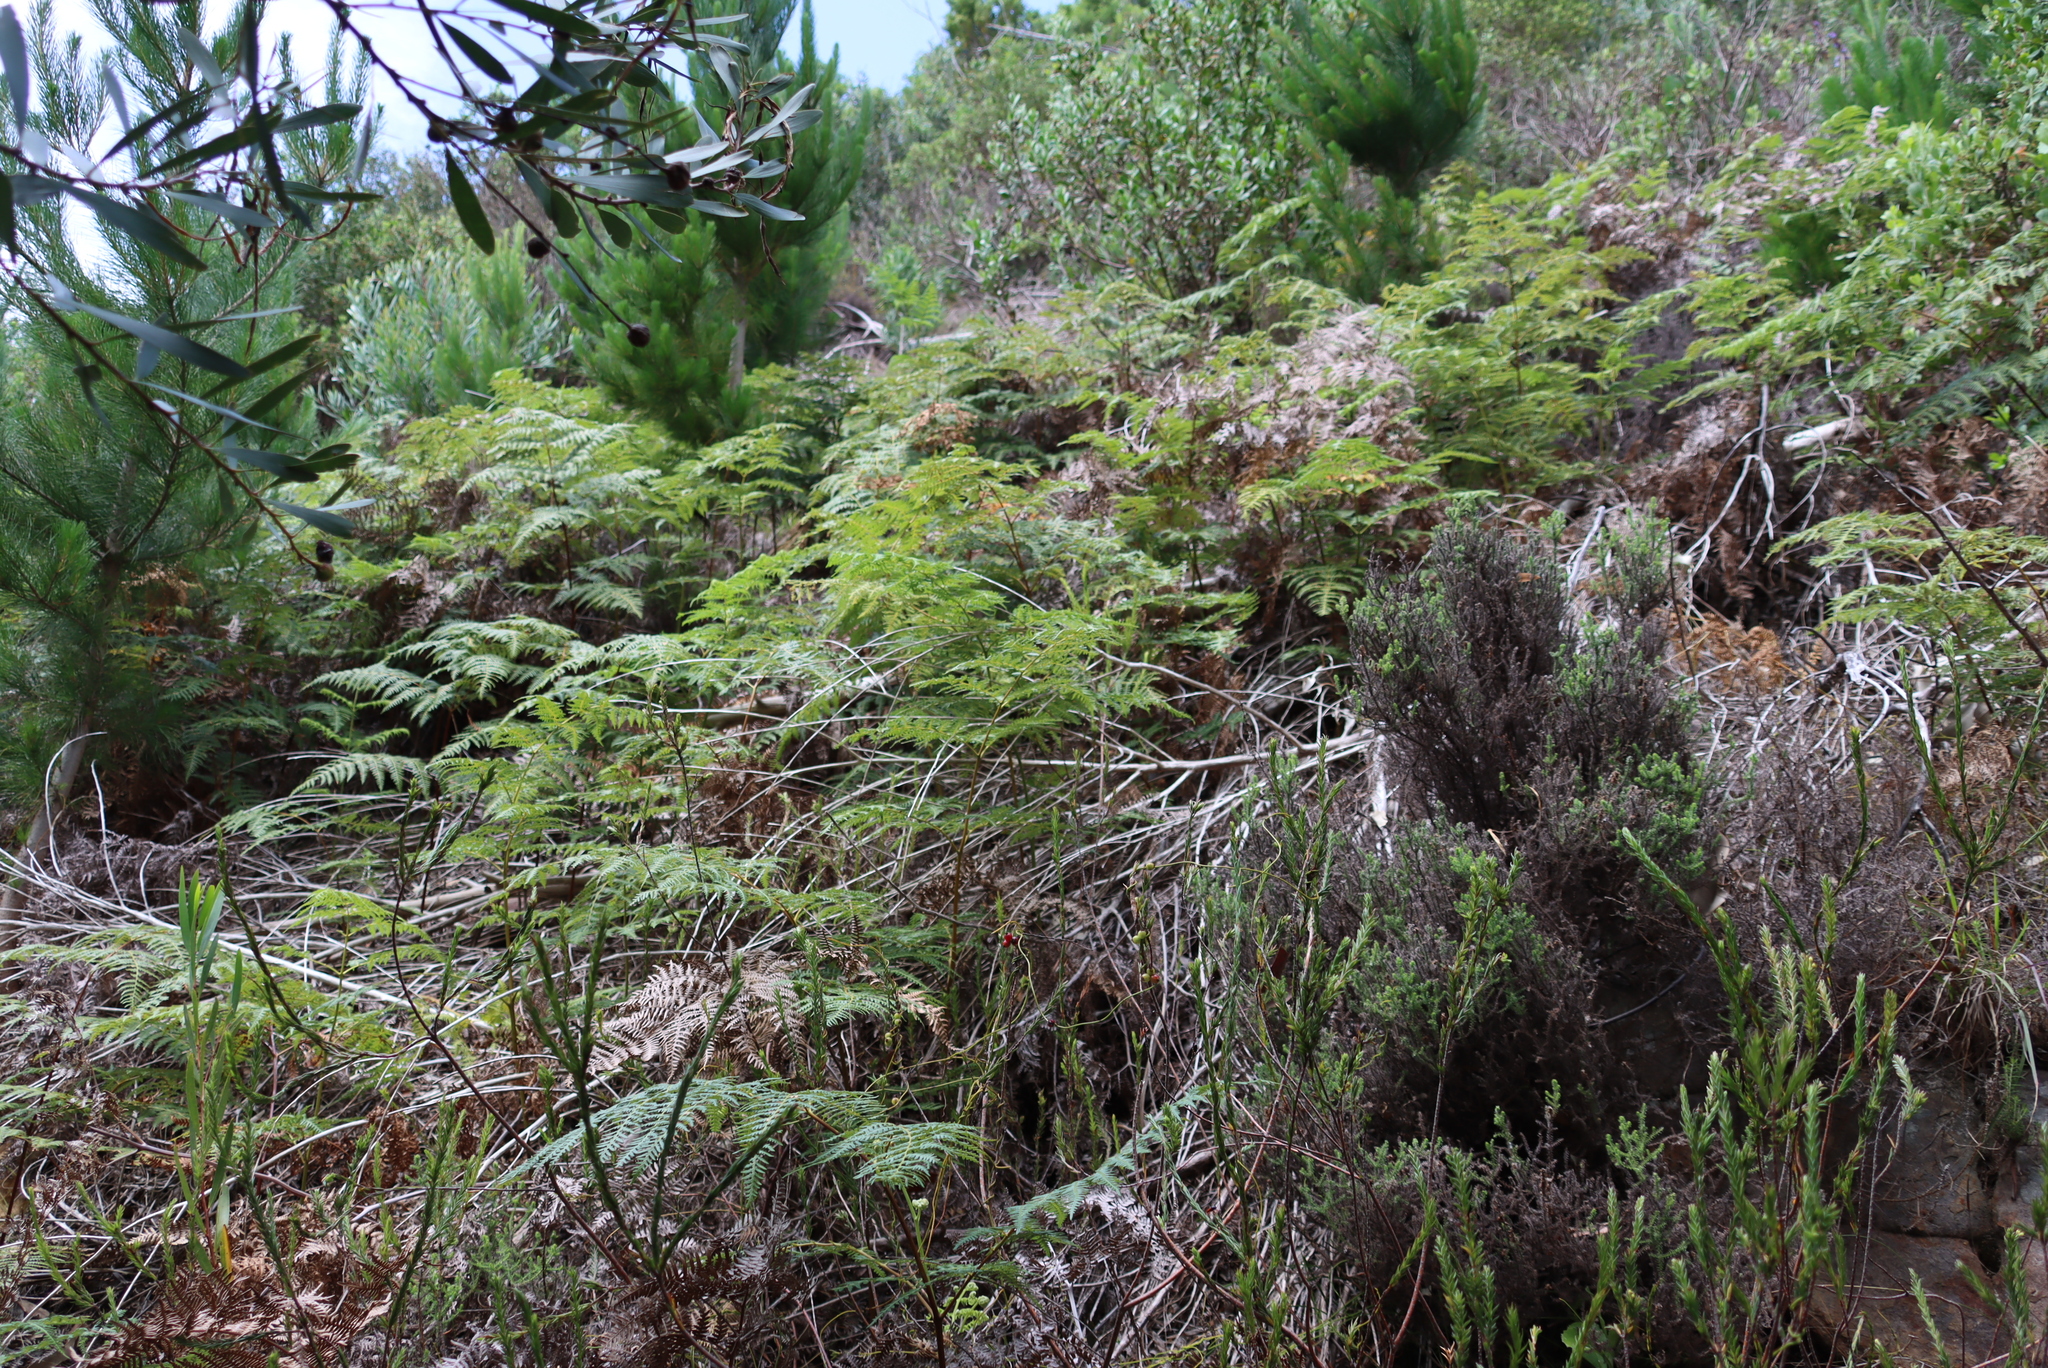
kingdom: Plantae
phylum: Tracheophyta
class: Polypodiopsida
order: Polypodiales
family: Dennstaedtiaceae
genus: Pteridium
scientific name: Pteridium aquilinum
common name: Bracken
